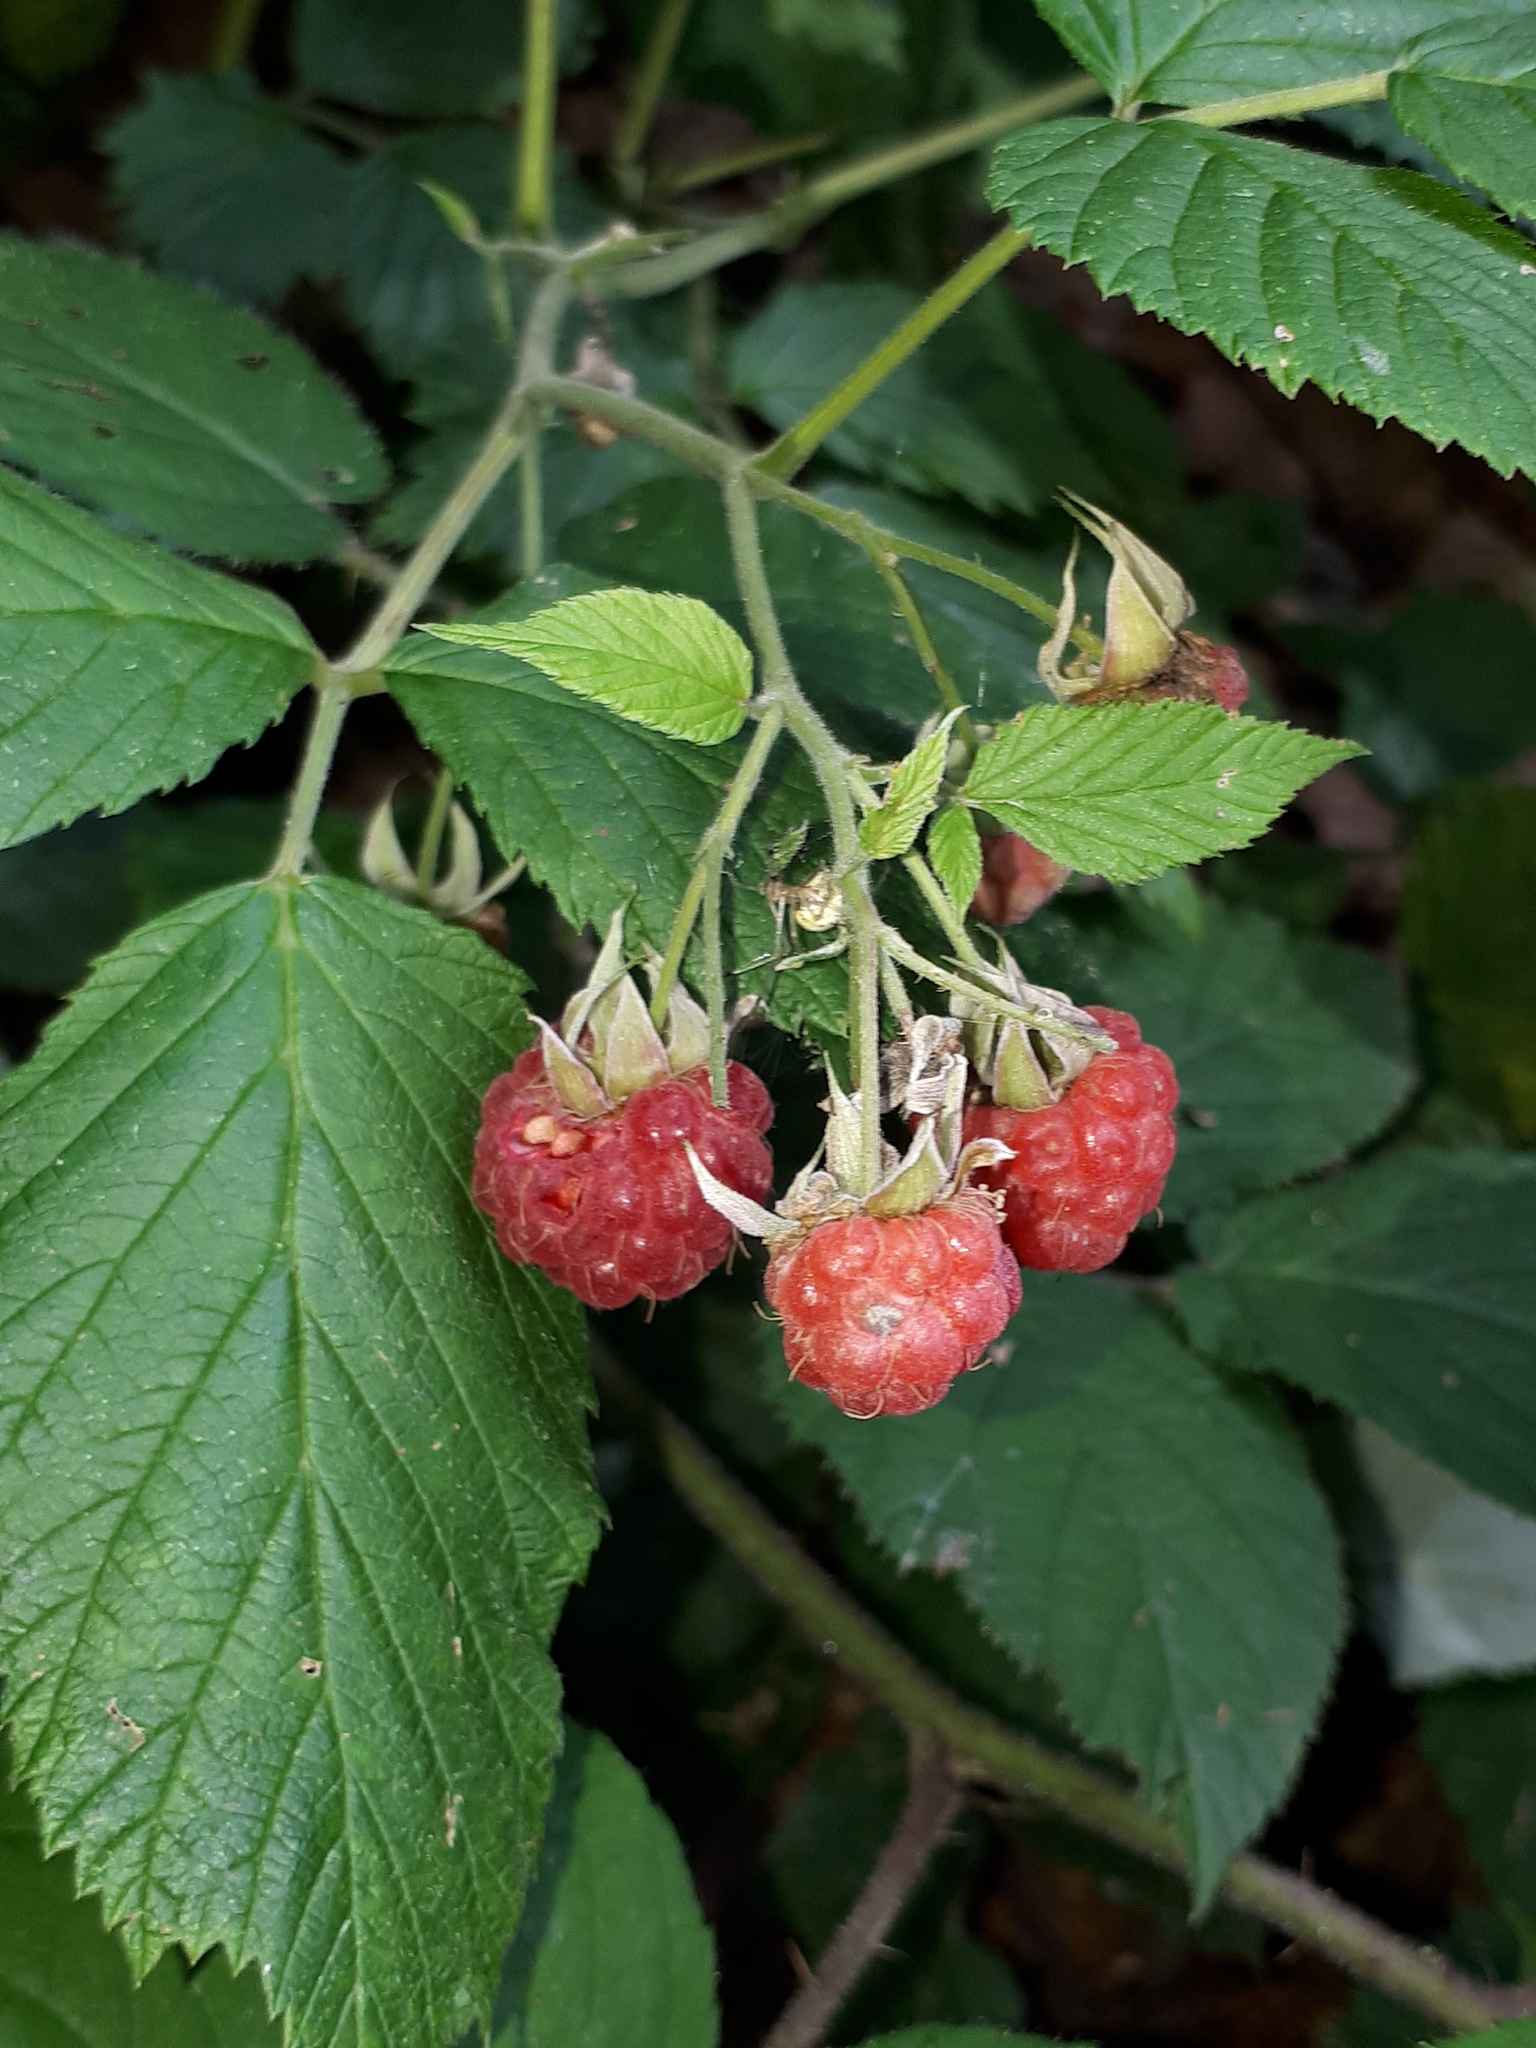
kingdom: Plantae
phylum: Tracheophyta
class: Magnoliopsida
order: Rosales
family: Rosaceae
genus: Rubus
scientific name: Rubus idaeus
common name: Raspberry
